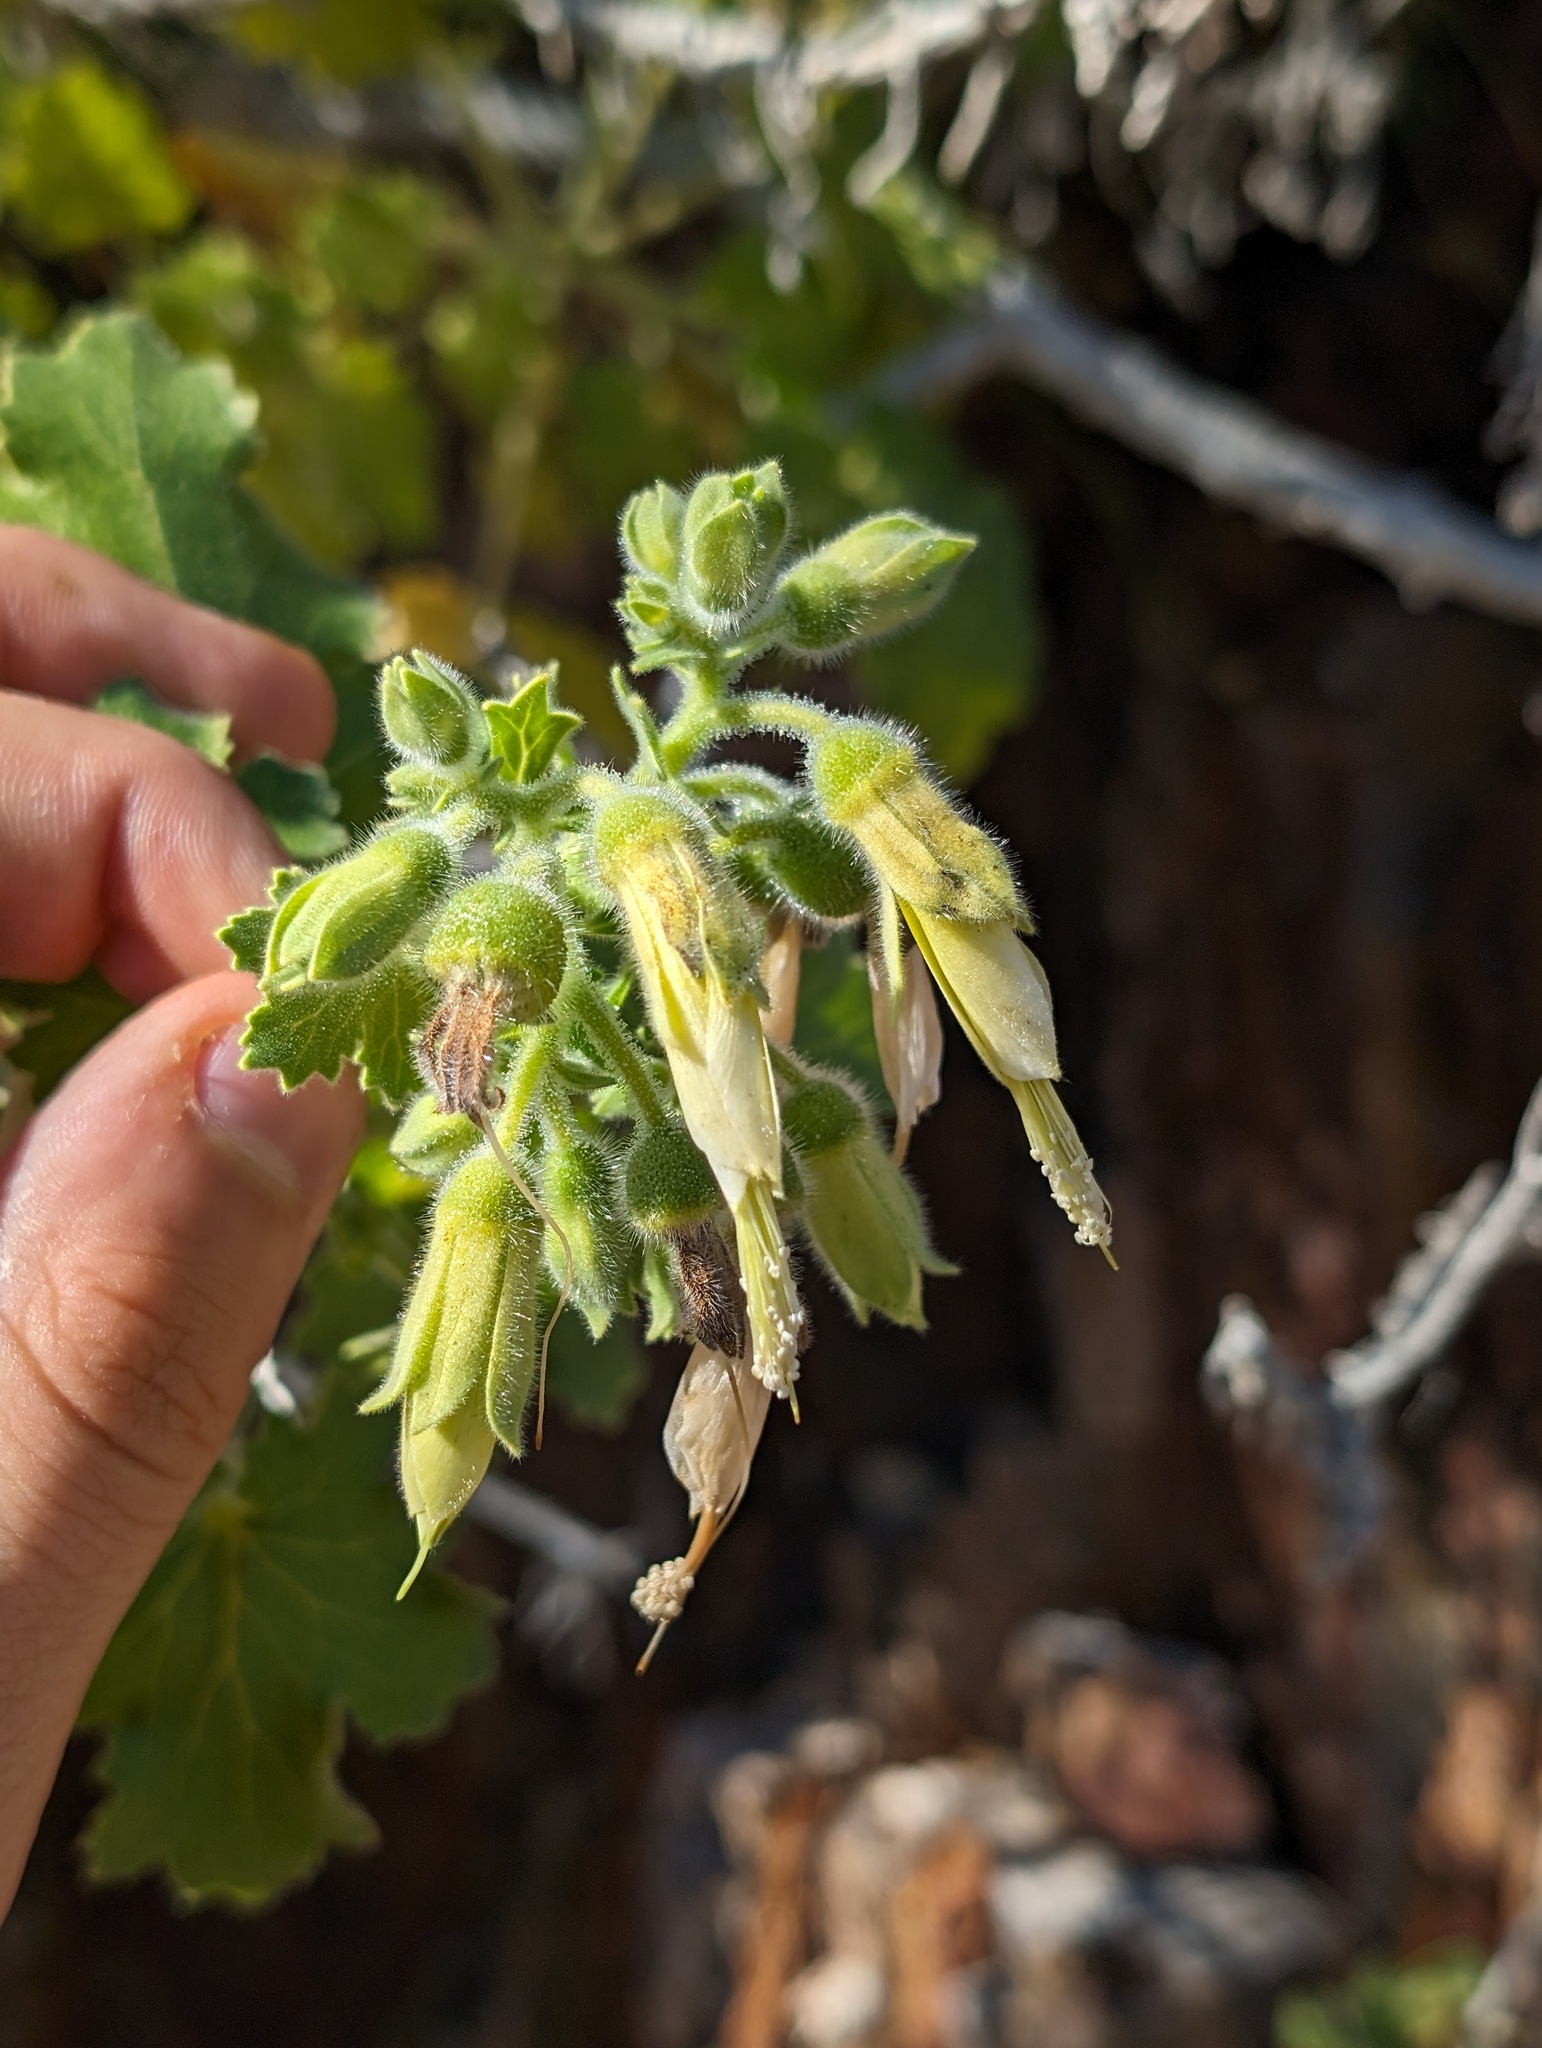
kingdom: Plantae
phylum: Tracheophyta
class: Magnoliopsida
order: Cornales
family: Loasaceae
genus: Eucnide
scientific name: Eucnide cordata
